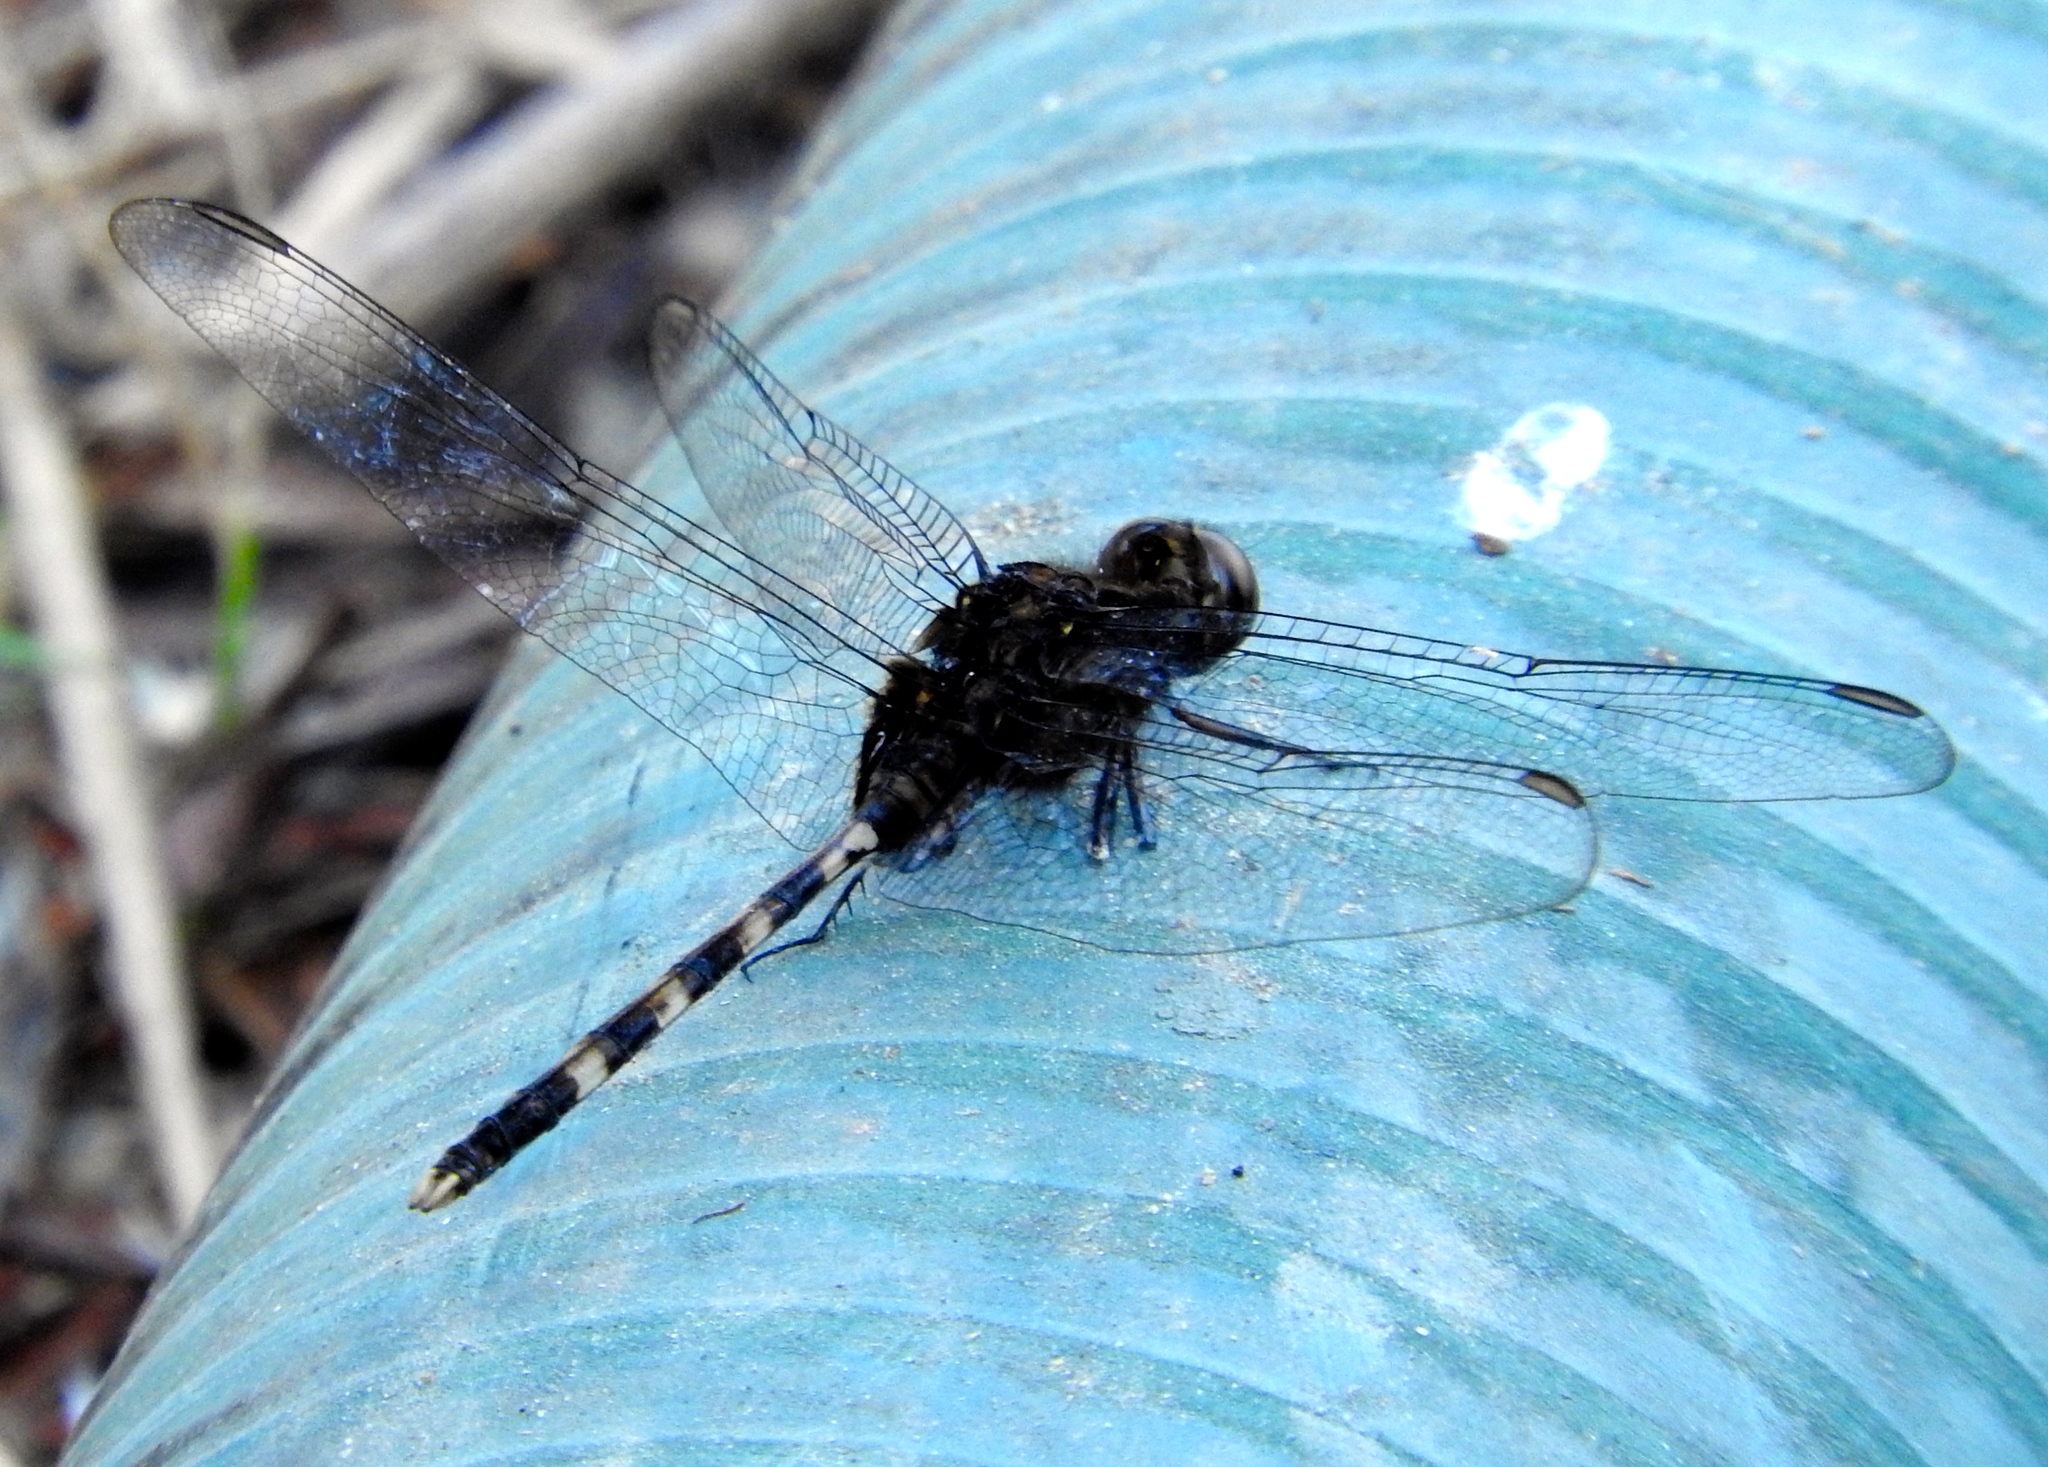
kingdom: Animalia
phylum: Arthropoda
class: Insecta
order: Odonata
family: Libellulidae
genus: Erythemis
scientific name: Erythemis plebeja
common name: Pin-tailed pondhawk
